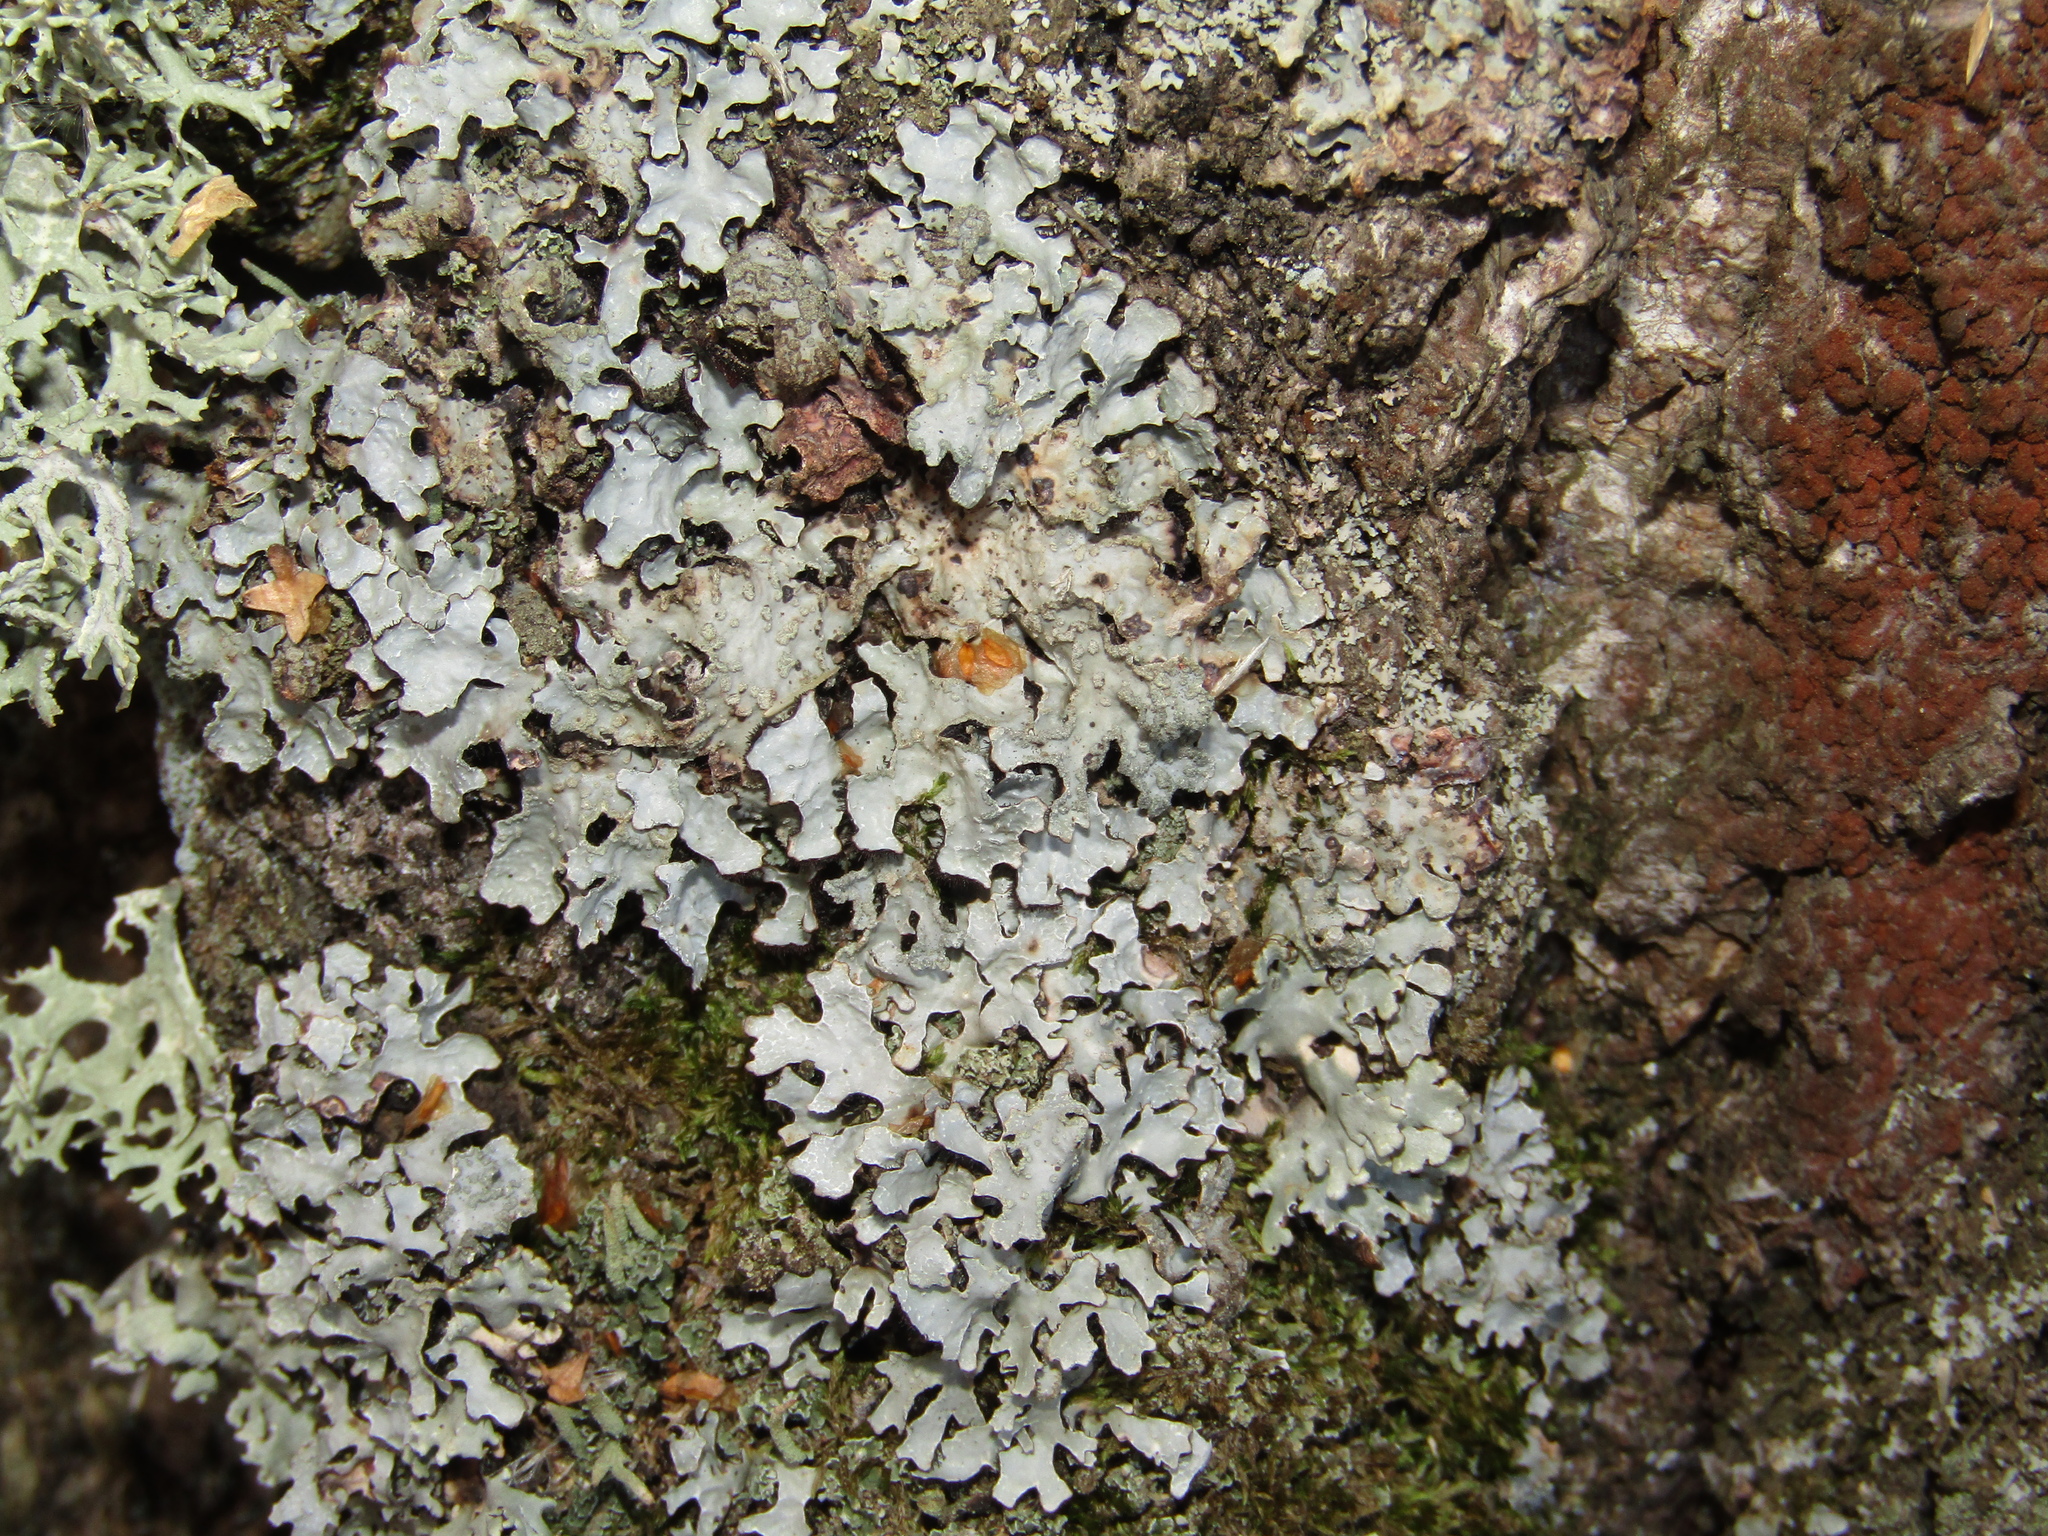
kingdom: Fungi
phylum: Ascomycota
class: Lecanoromycetes
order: Lecanorales
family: Parmeliaceae
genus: Parmelia
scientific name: Parmelia sulcata
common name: Netted shield lichen
